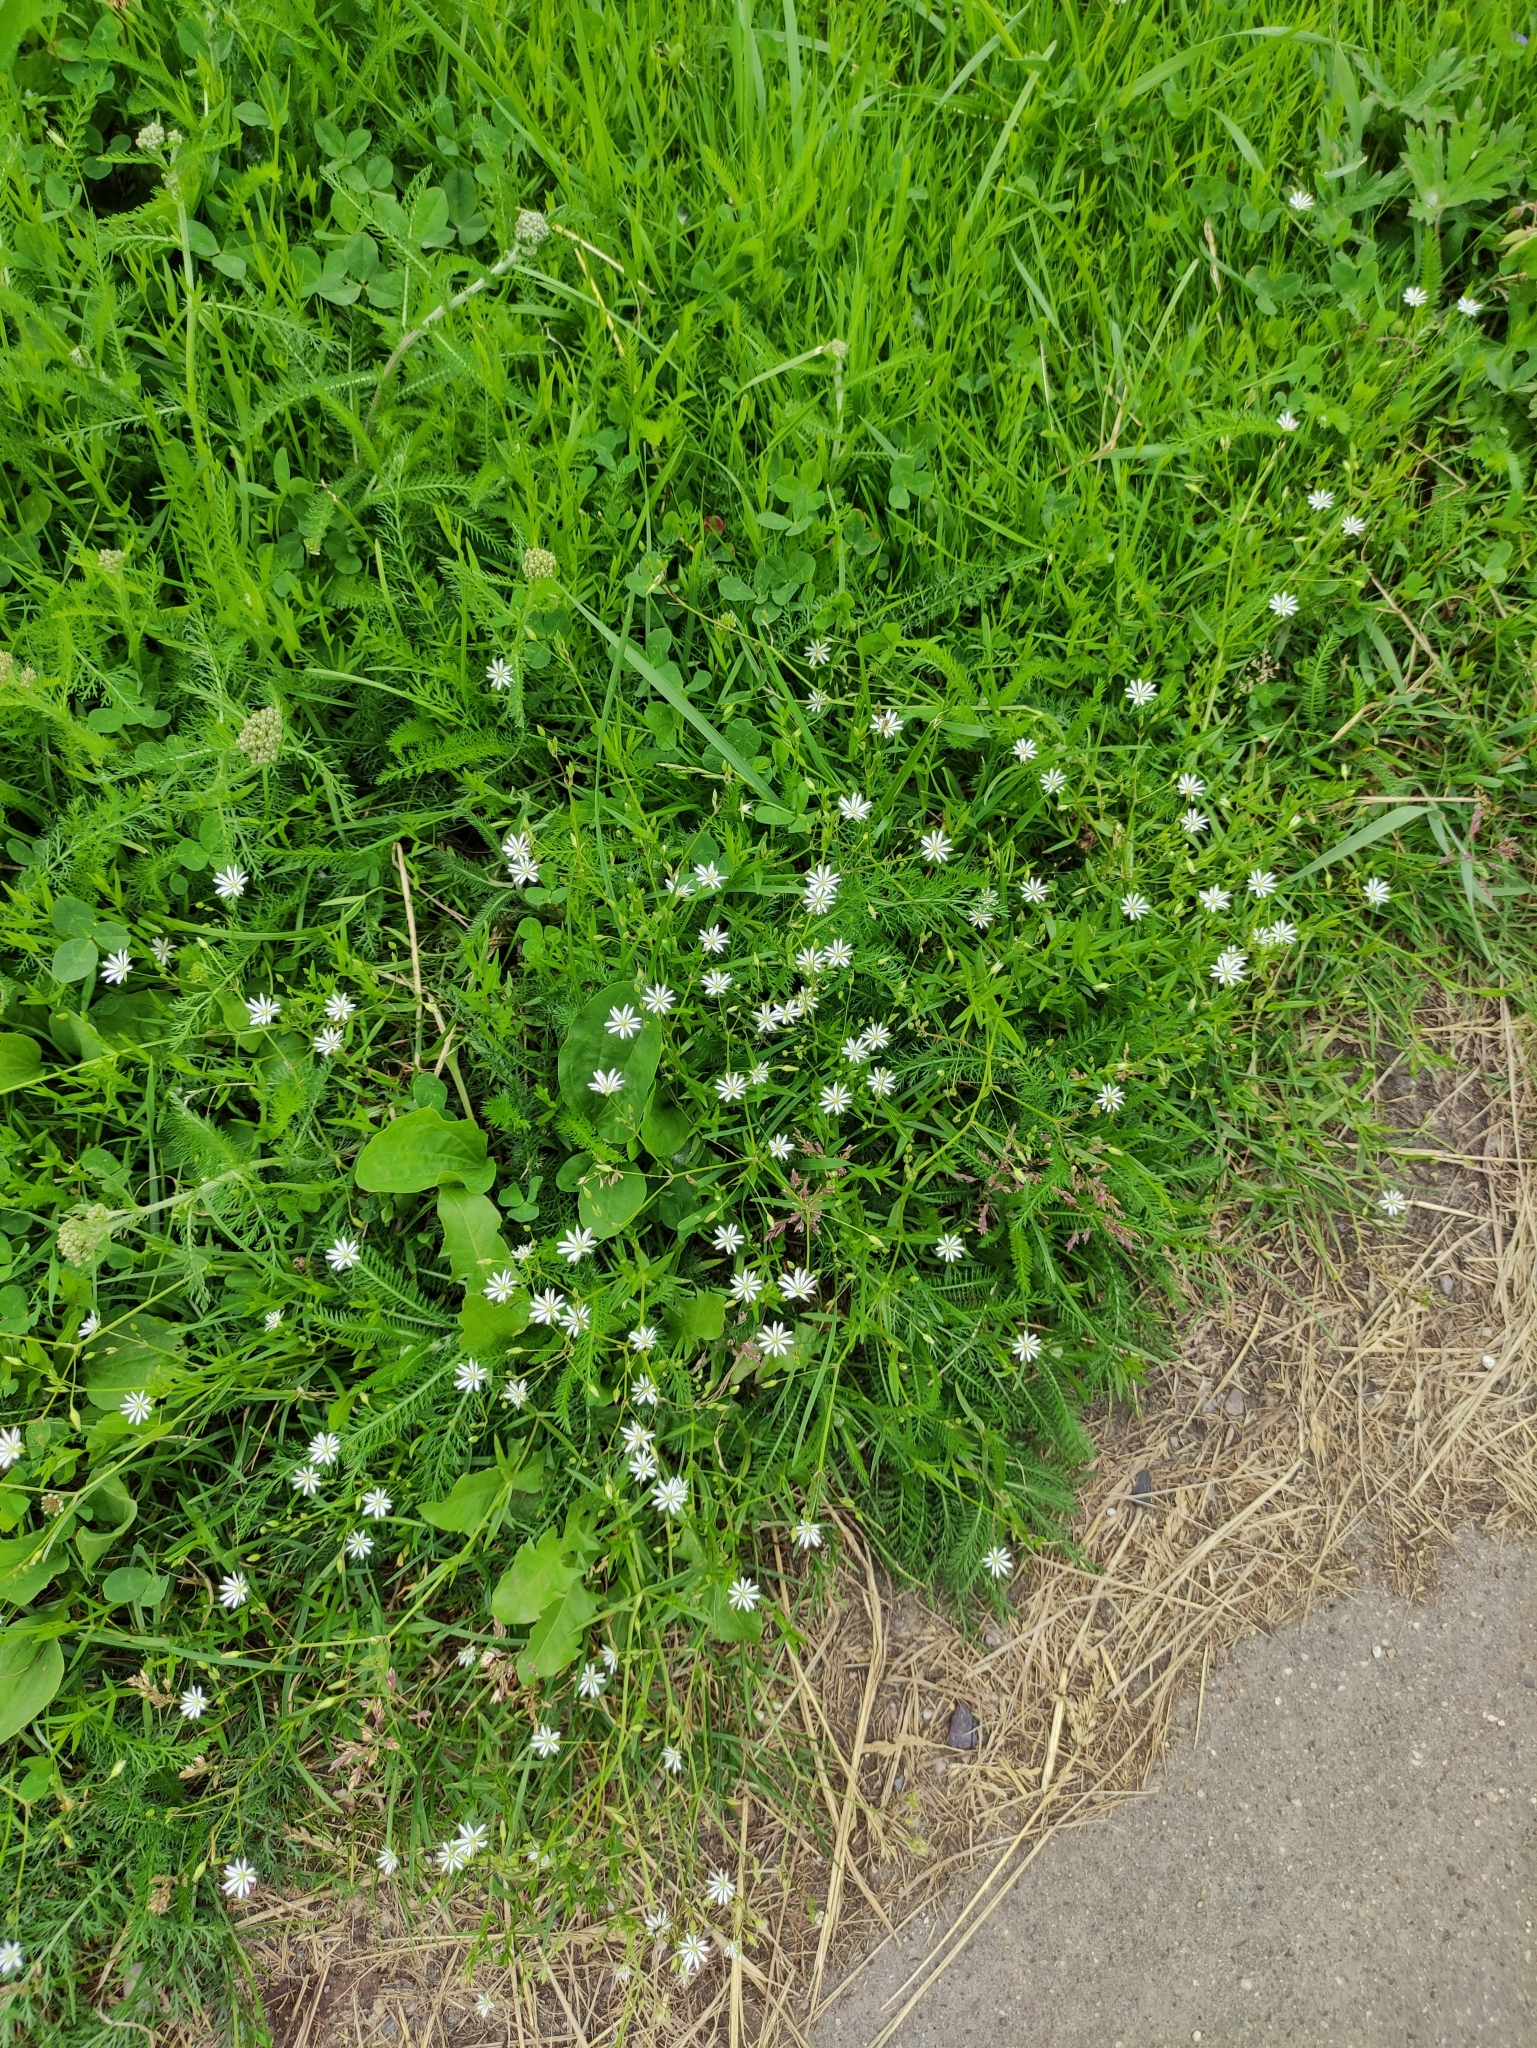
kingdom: Plantae
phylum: Tracheophyta
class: Magnoliopsida
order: Caryophyllales
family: Caryophyllaceae
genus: Stellaria
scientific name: Stellaria graminea
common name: Grass-like starwort
